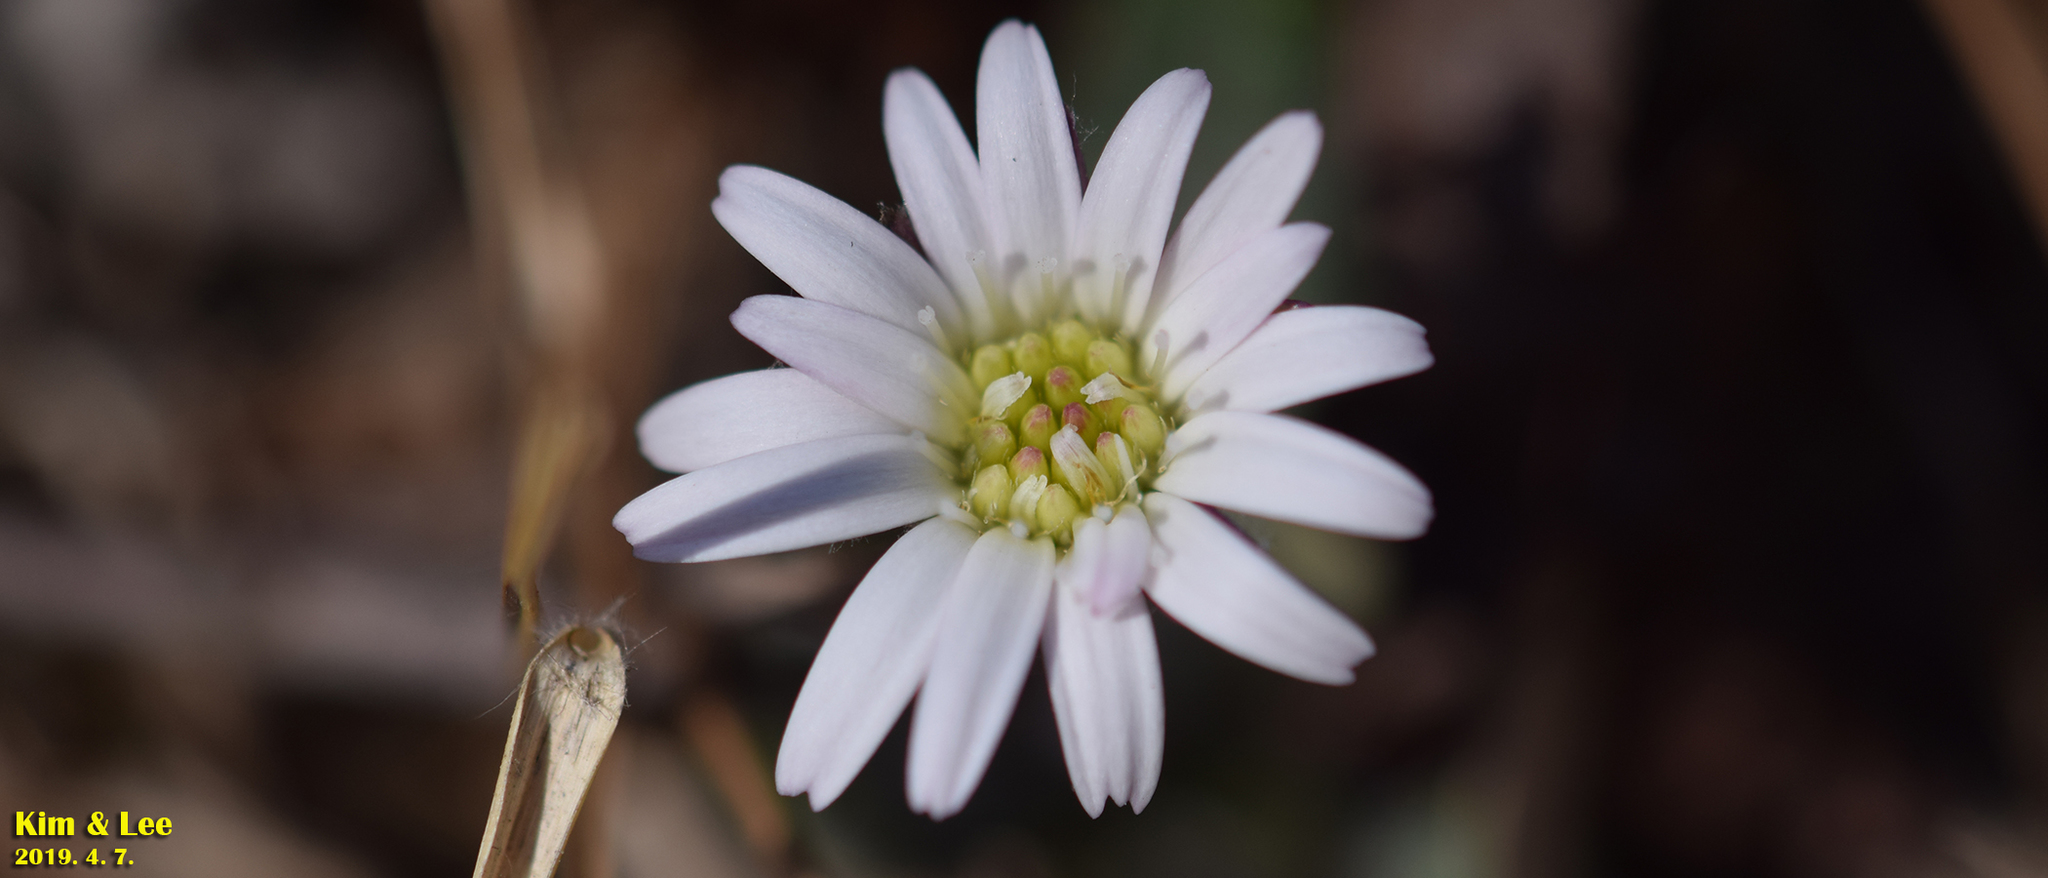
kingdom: Plantae
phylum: Tracheophyta
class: Magnoliopsida
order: Asterales
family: Asteraceae
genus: Leibnitzia
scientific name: Leibnitzia anandria
